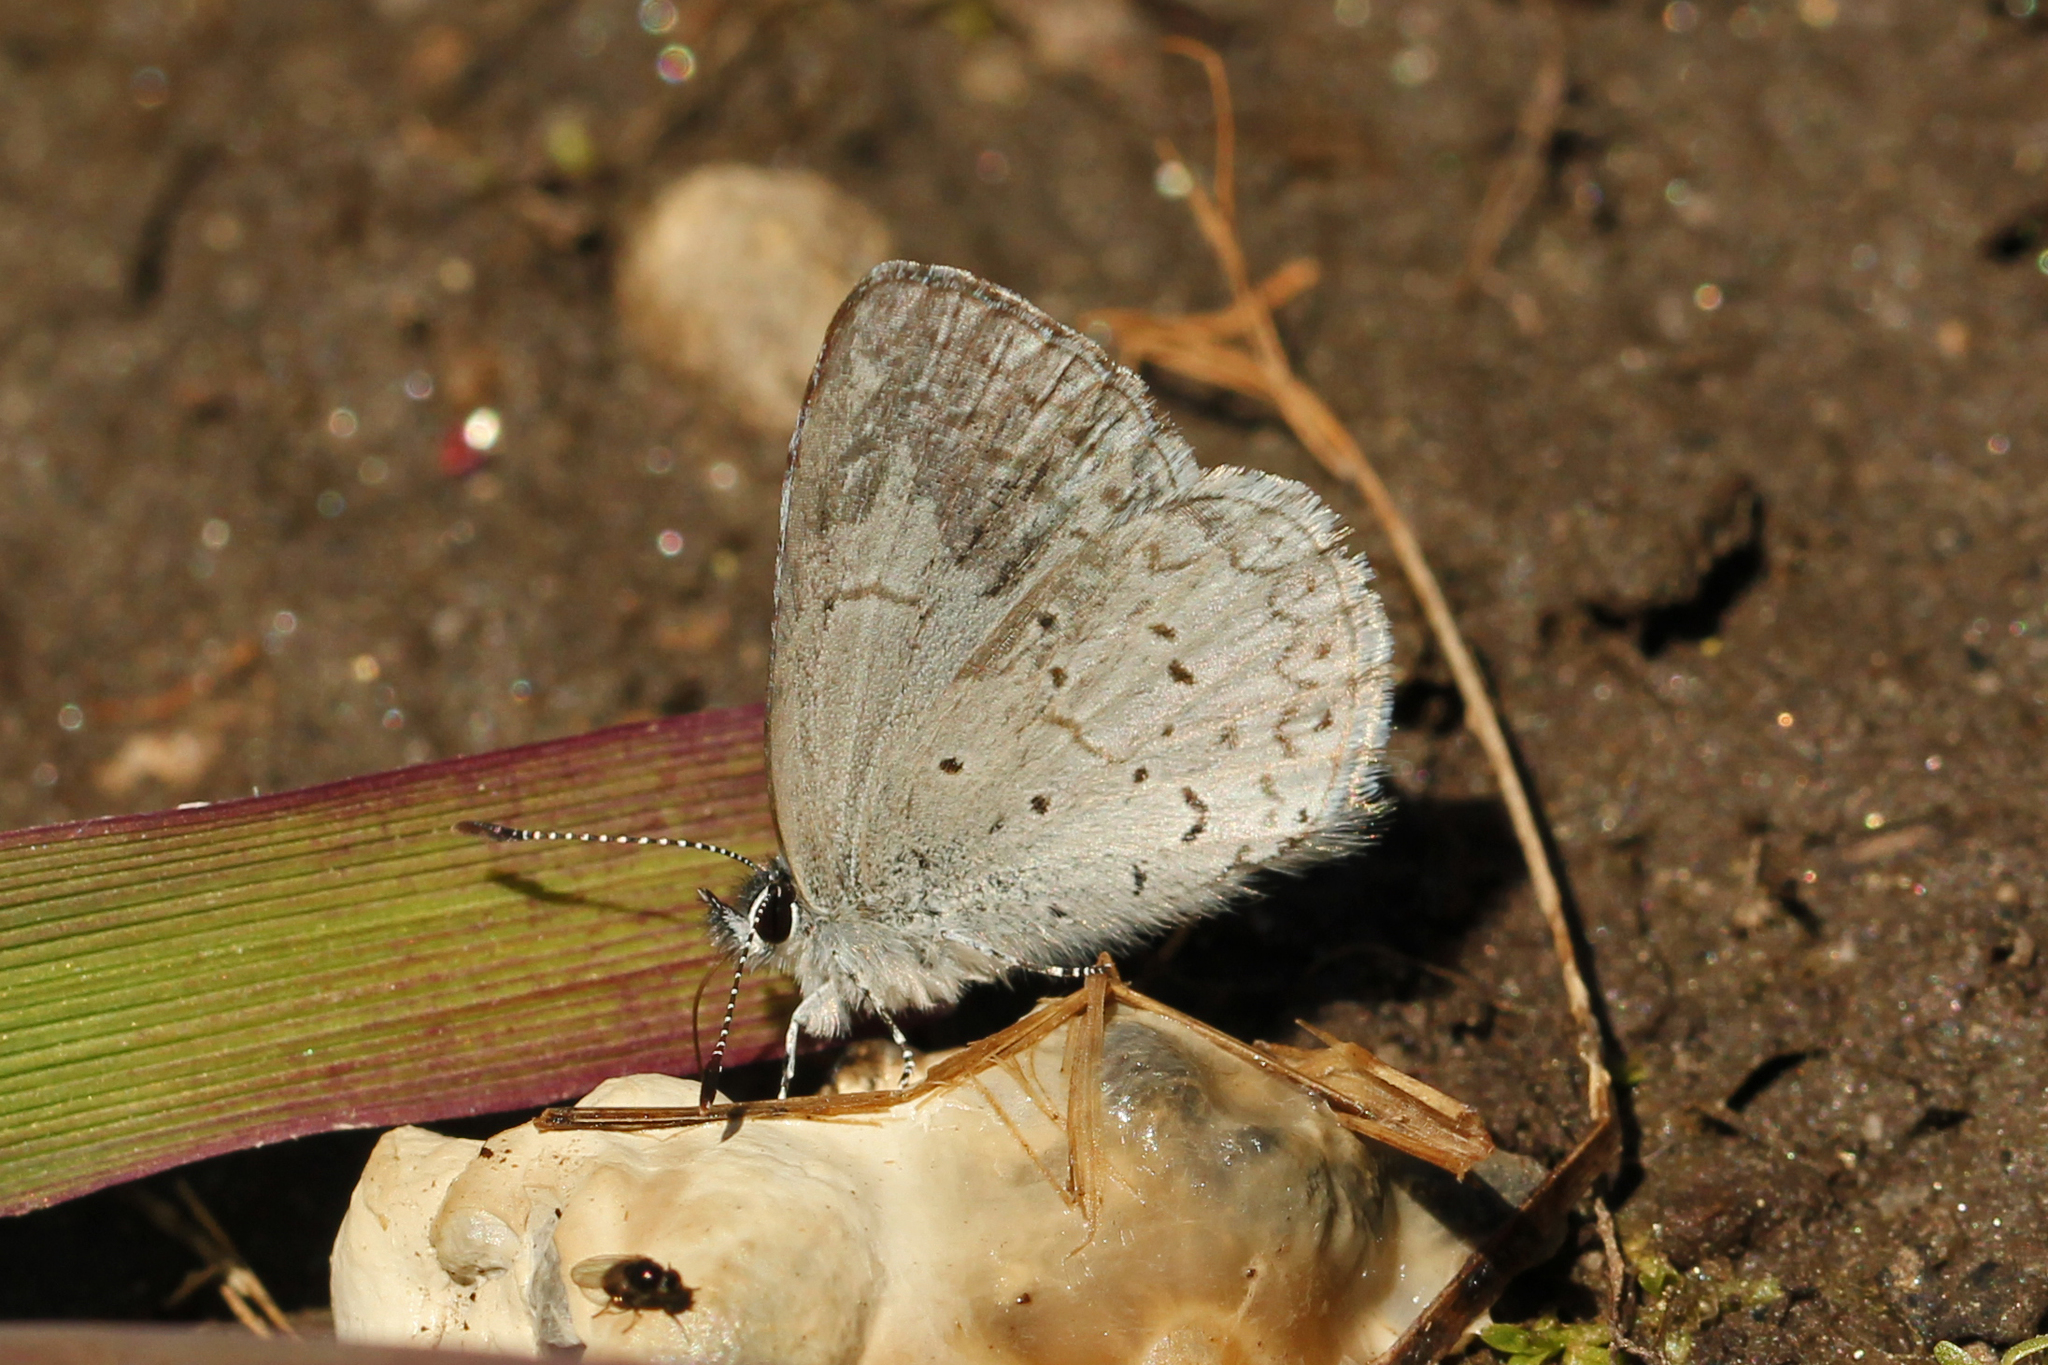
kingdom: Animalia
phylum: Arthropoda
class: Insecta
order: Lepidoptera
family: Lycaenidae
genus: Celastrina
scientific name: Celastrina ladon
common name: Spring azure
